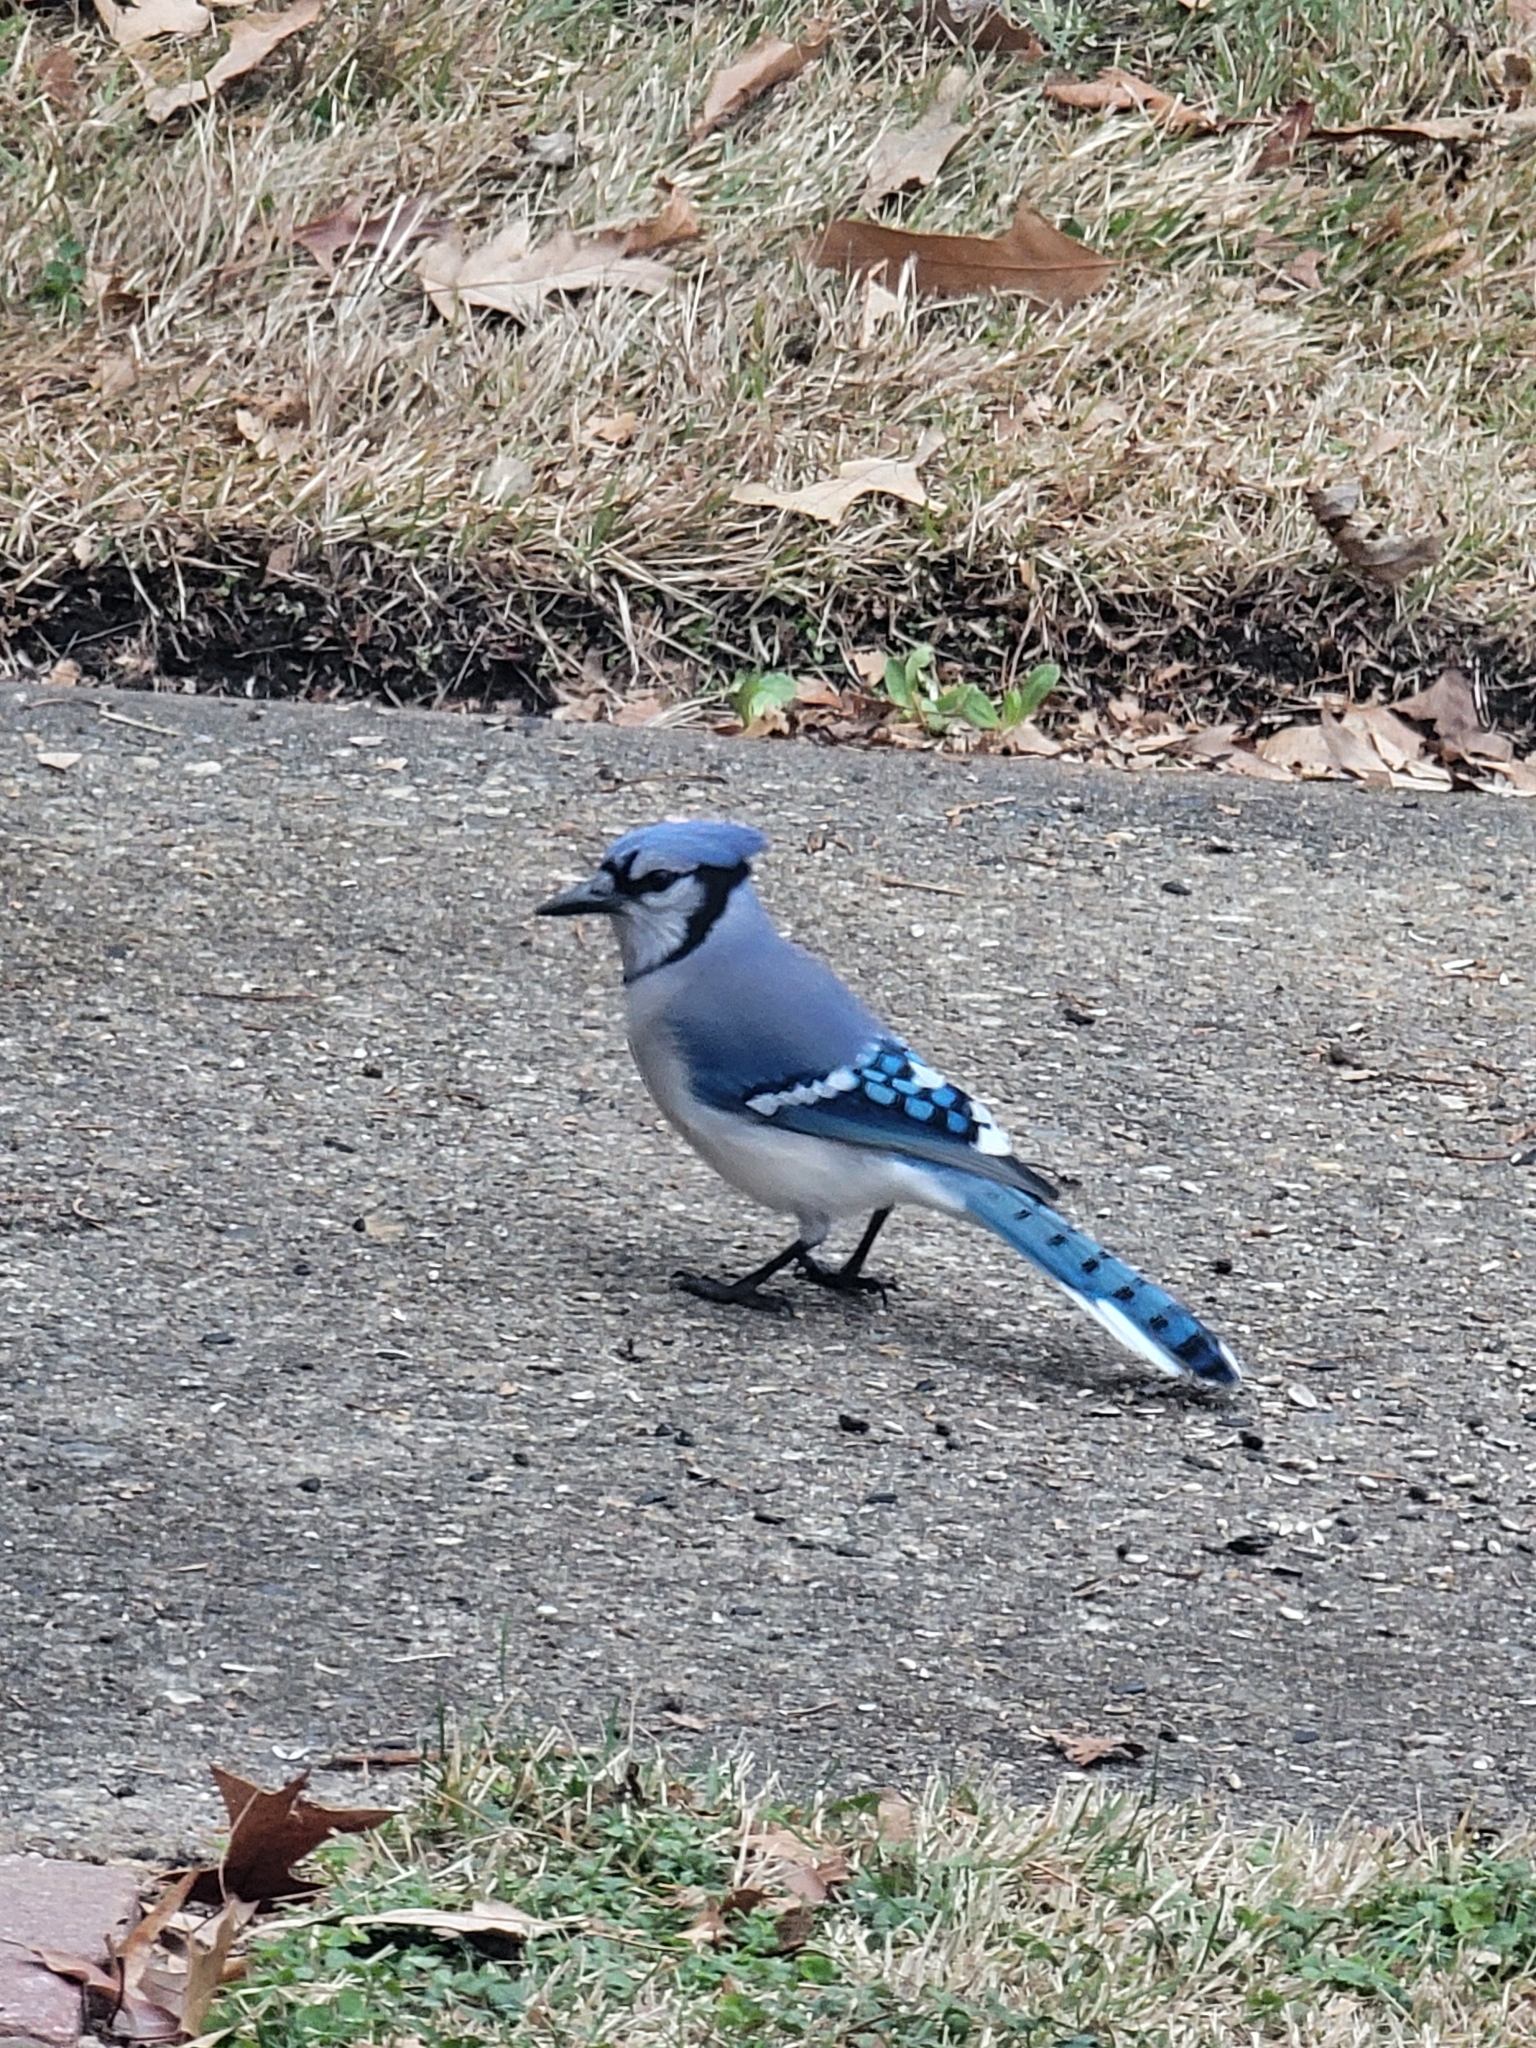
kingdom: Animalia
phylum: Chordata
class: Aves
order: Passeriformes
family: Corvidae
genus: Cyanocitta
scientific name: Cyanocitta cristata
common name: Blue jay
